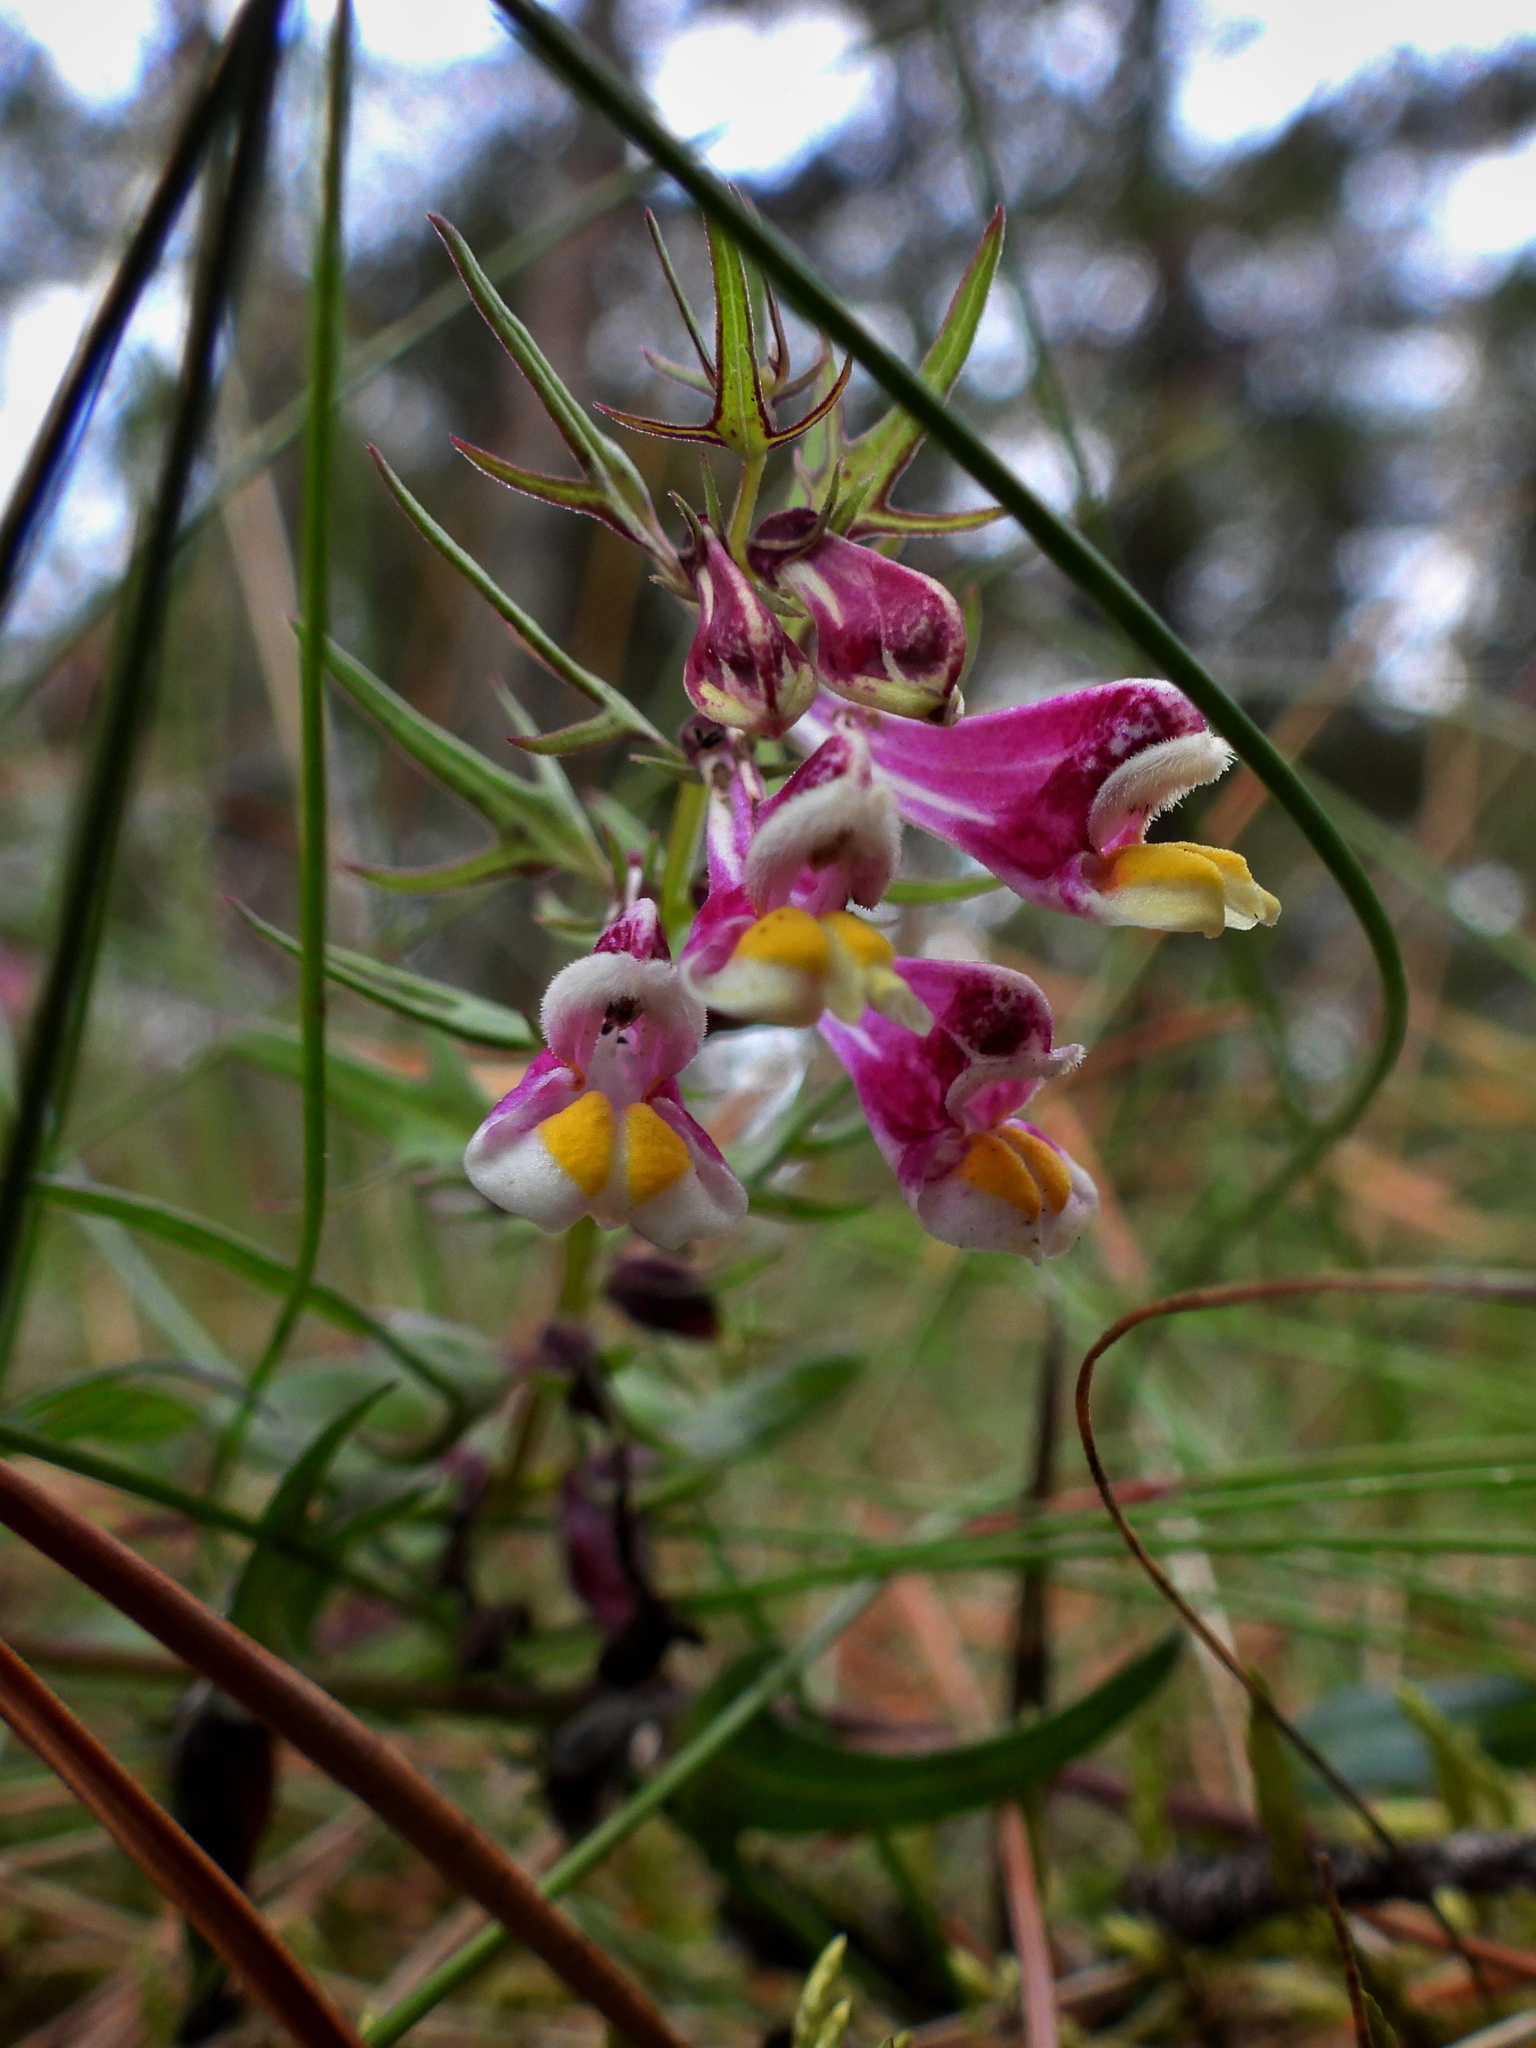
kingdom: Plantae
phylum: Tracheophyta
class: Magnoliopsida
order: Lamiales
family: Orobanchaceae
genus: Melampyrum
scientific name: Melampyrum pratense
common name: Common cow-wheat
